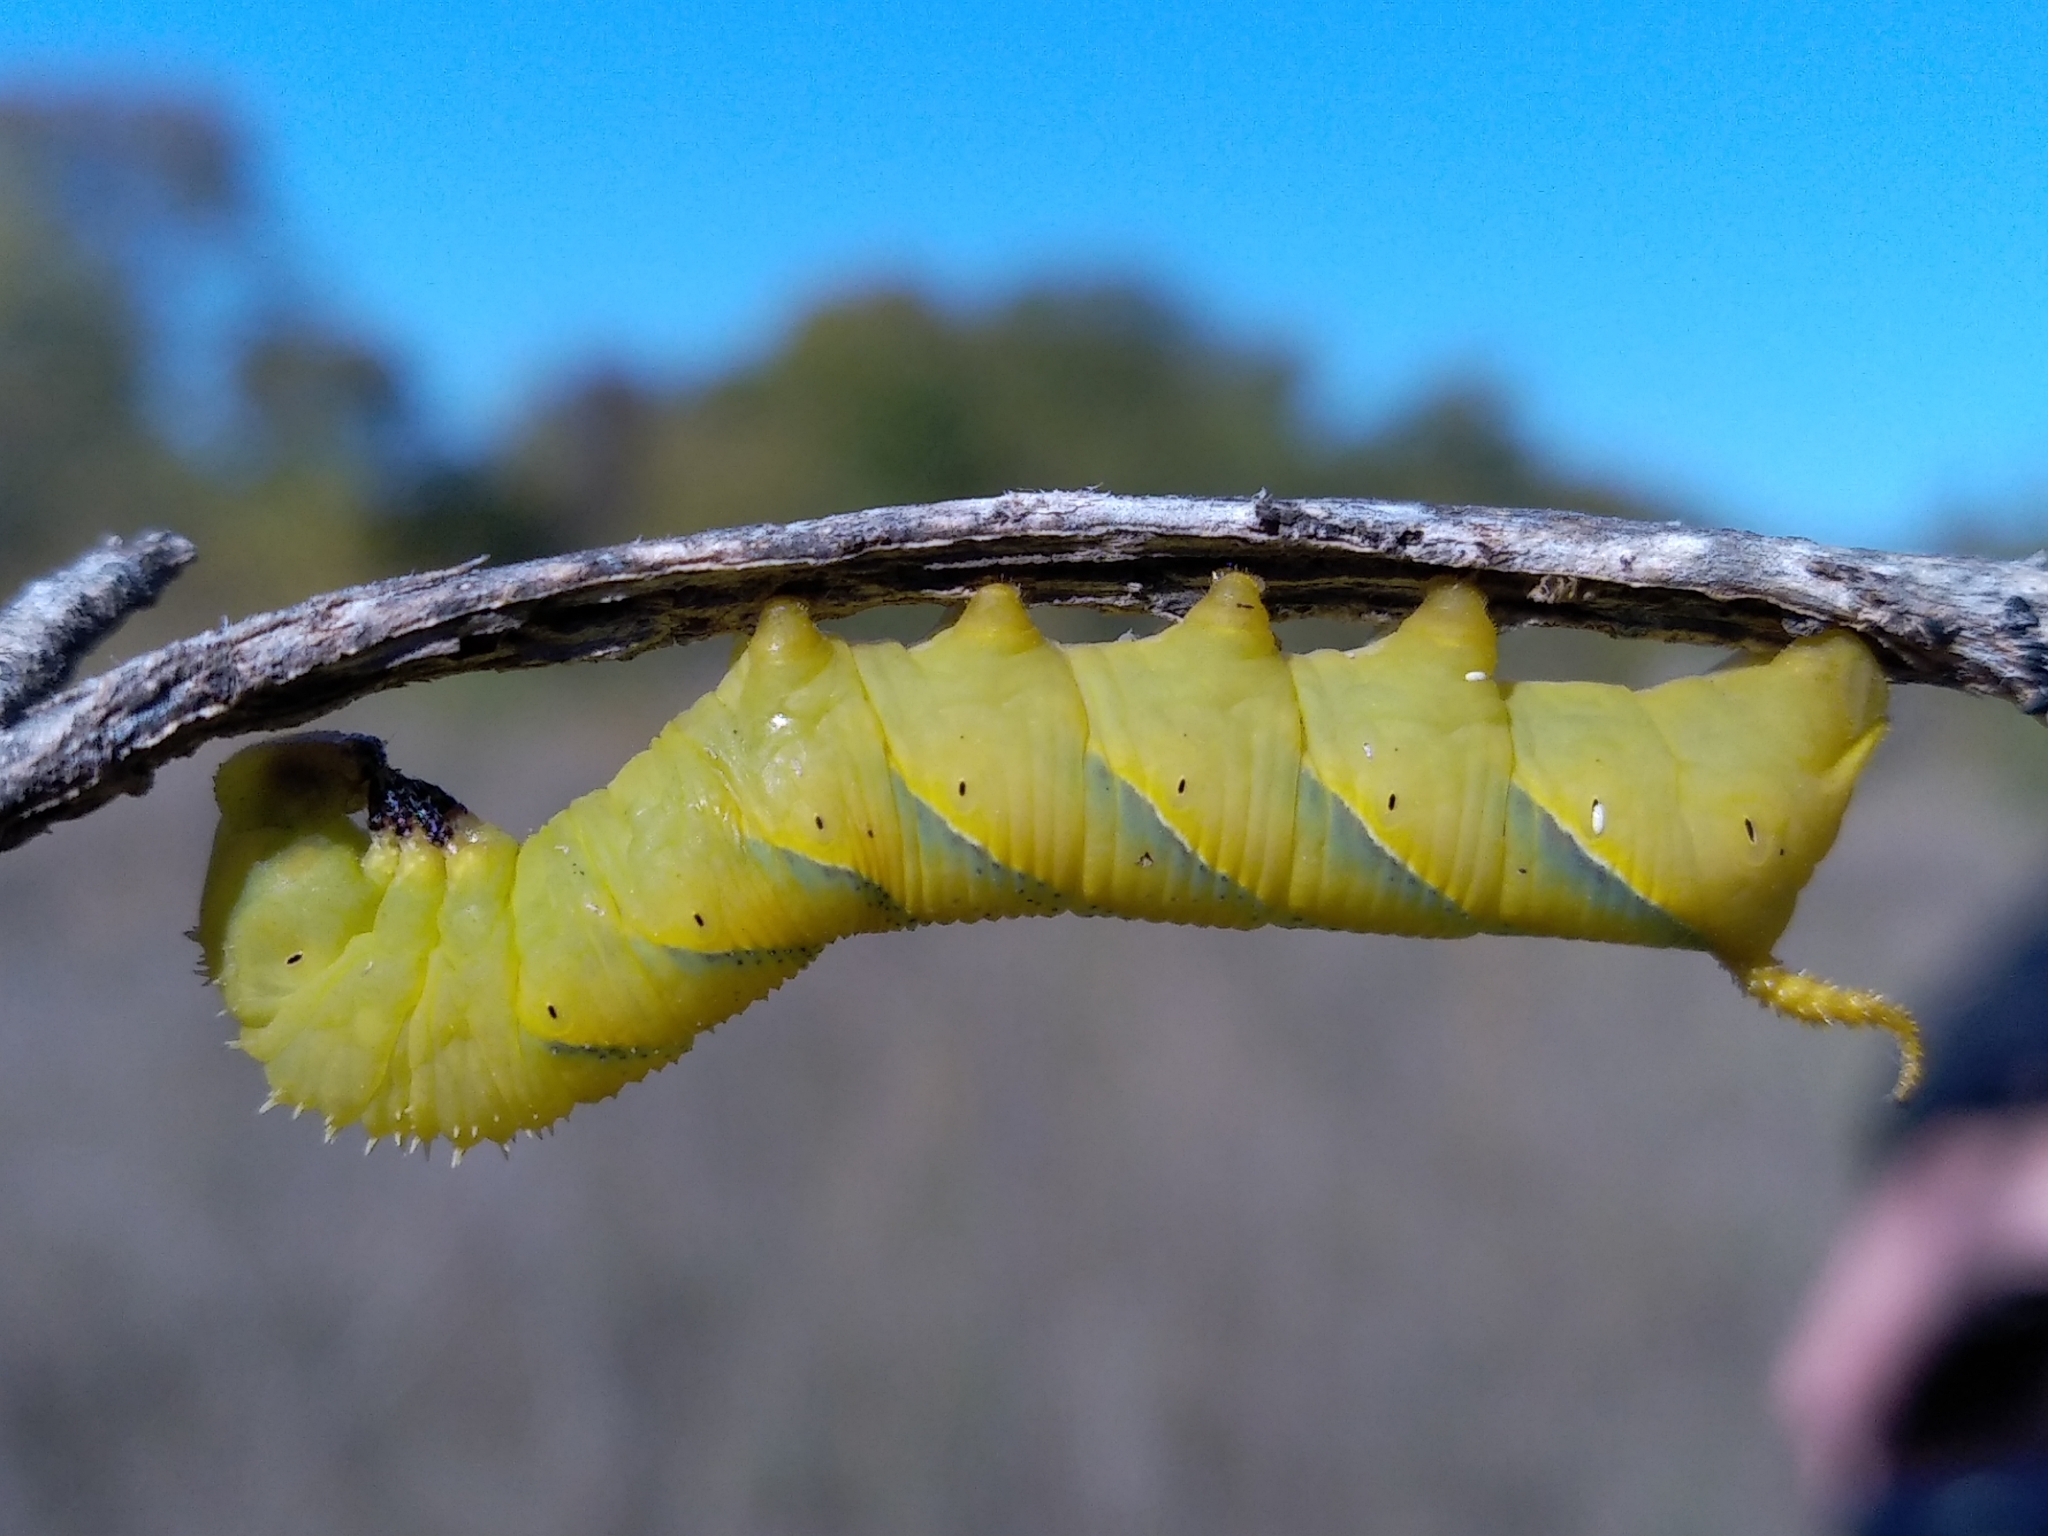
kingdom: Animalia
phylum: Arthropoda
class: Insecta
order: Lepidoptera
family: Sphingidae
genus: Acherontia
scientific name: Acherontia atropos
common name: Death's-head hawk moth
